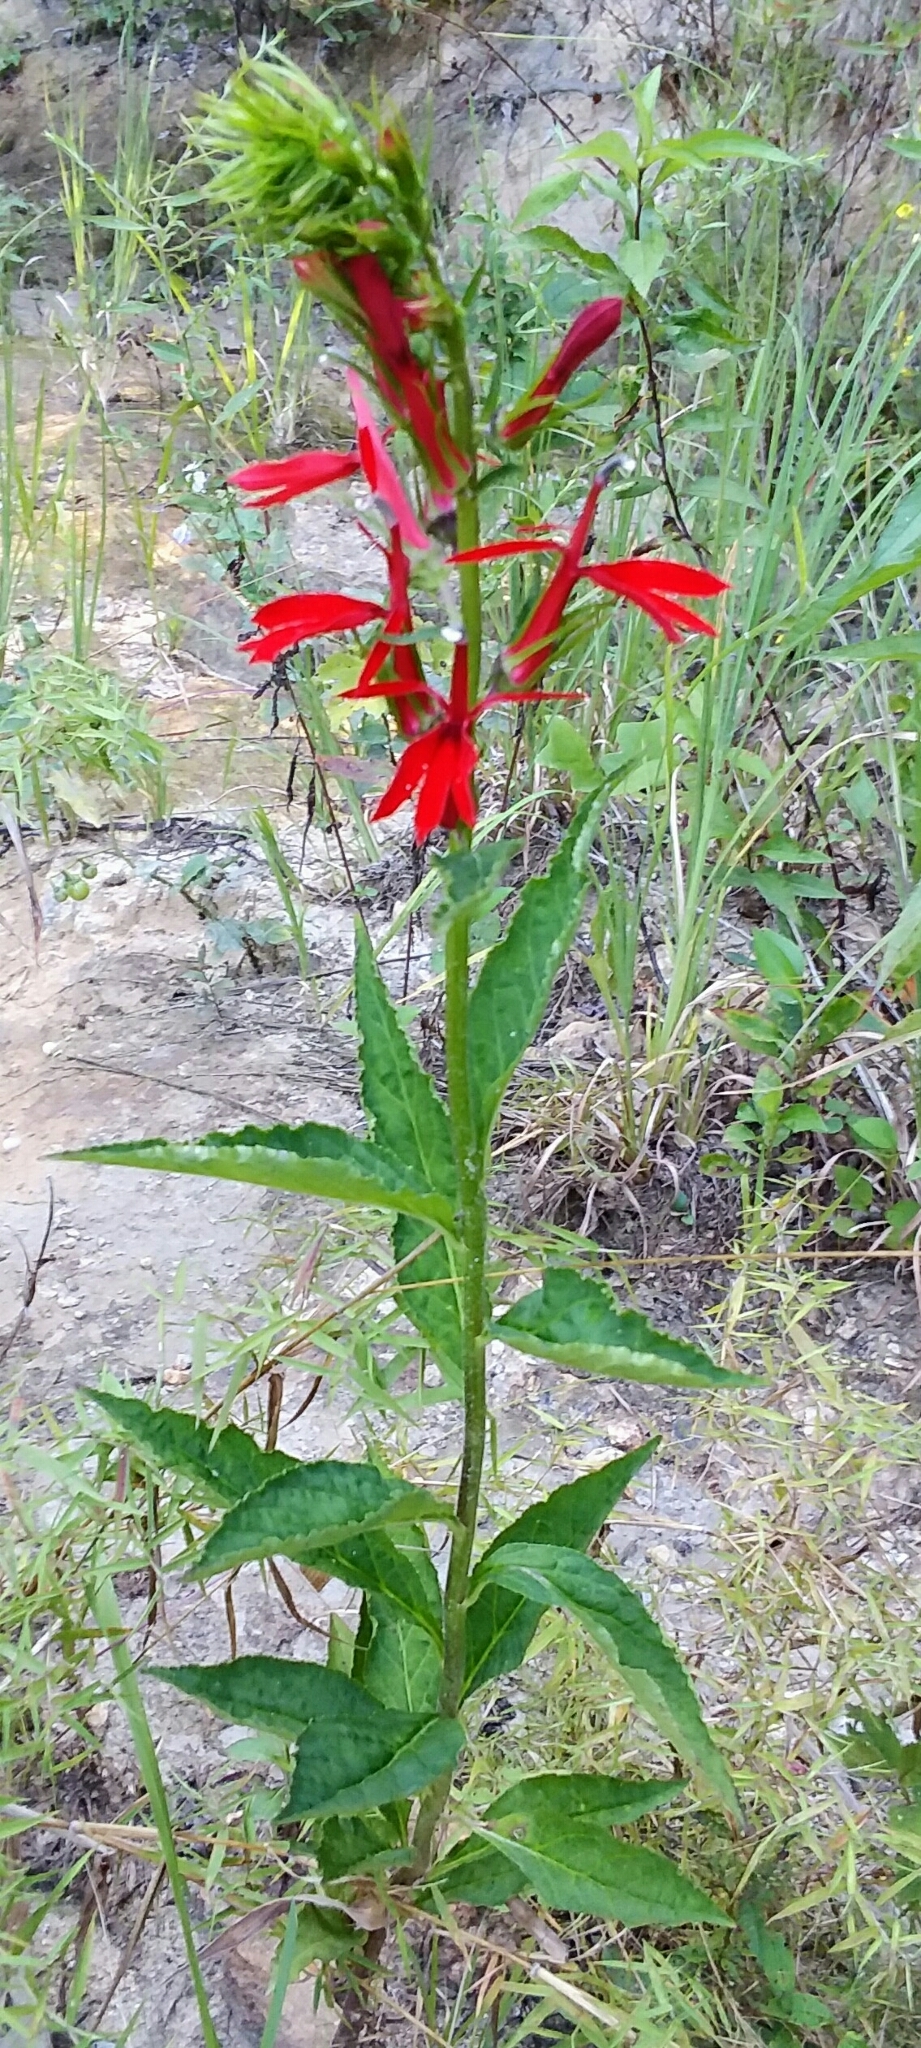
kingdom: Plantae
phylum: Tracheophyta
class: Magnoliopsida
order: Asterales
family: Campanulaceae
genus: Lobelia
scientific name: Lobelia cardinalis
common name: Cardinal flower
